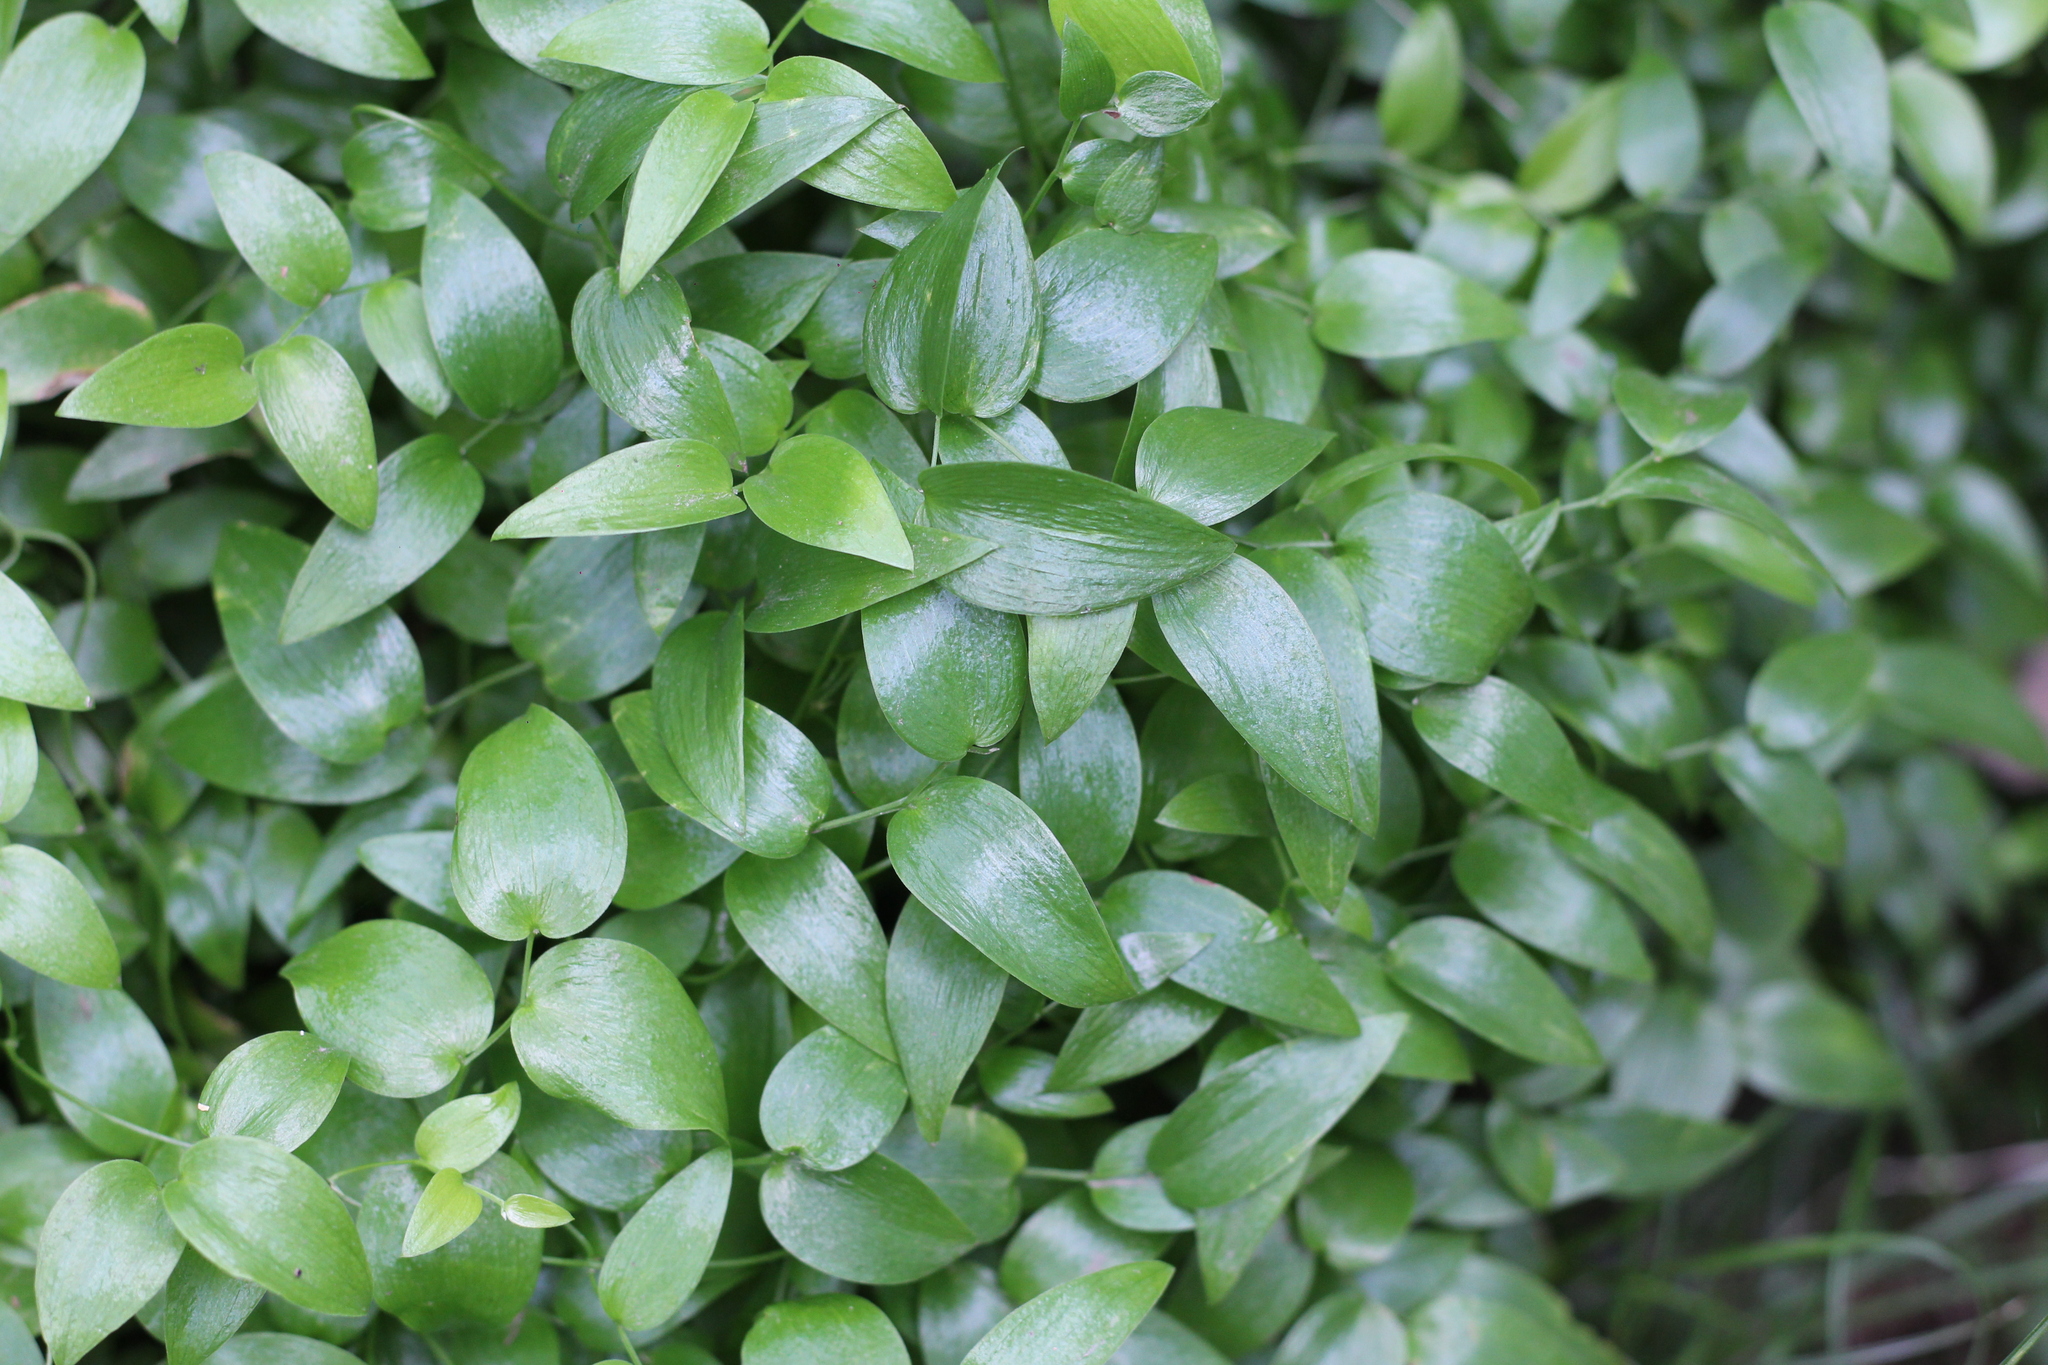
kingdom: Plantae
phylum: Tracheophyta
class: Liliopsida
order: Asparagales
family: Asparagaceae
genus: Asparagus
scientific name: Asparagus asparagoides
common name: African asparagus fern
